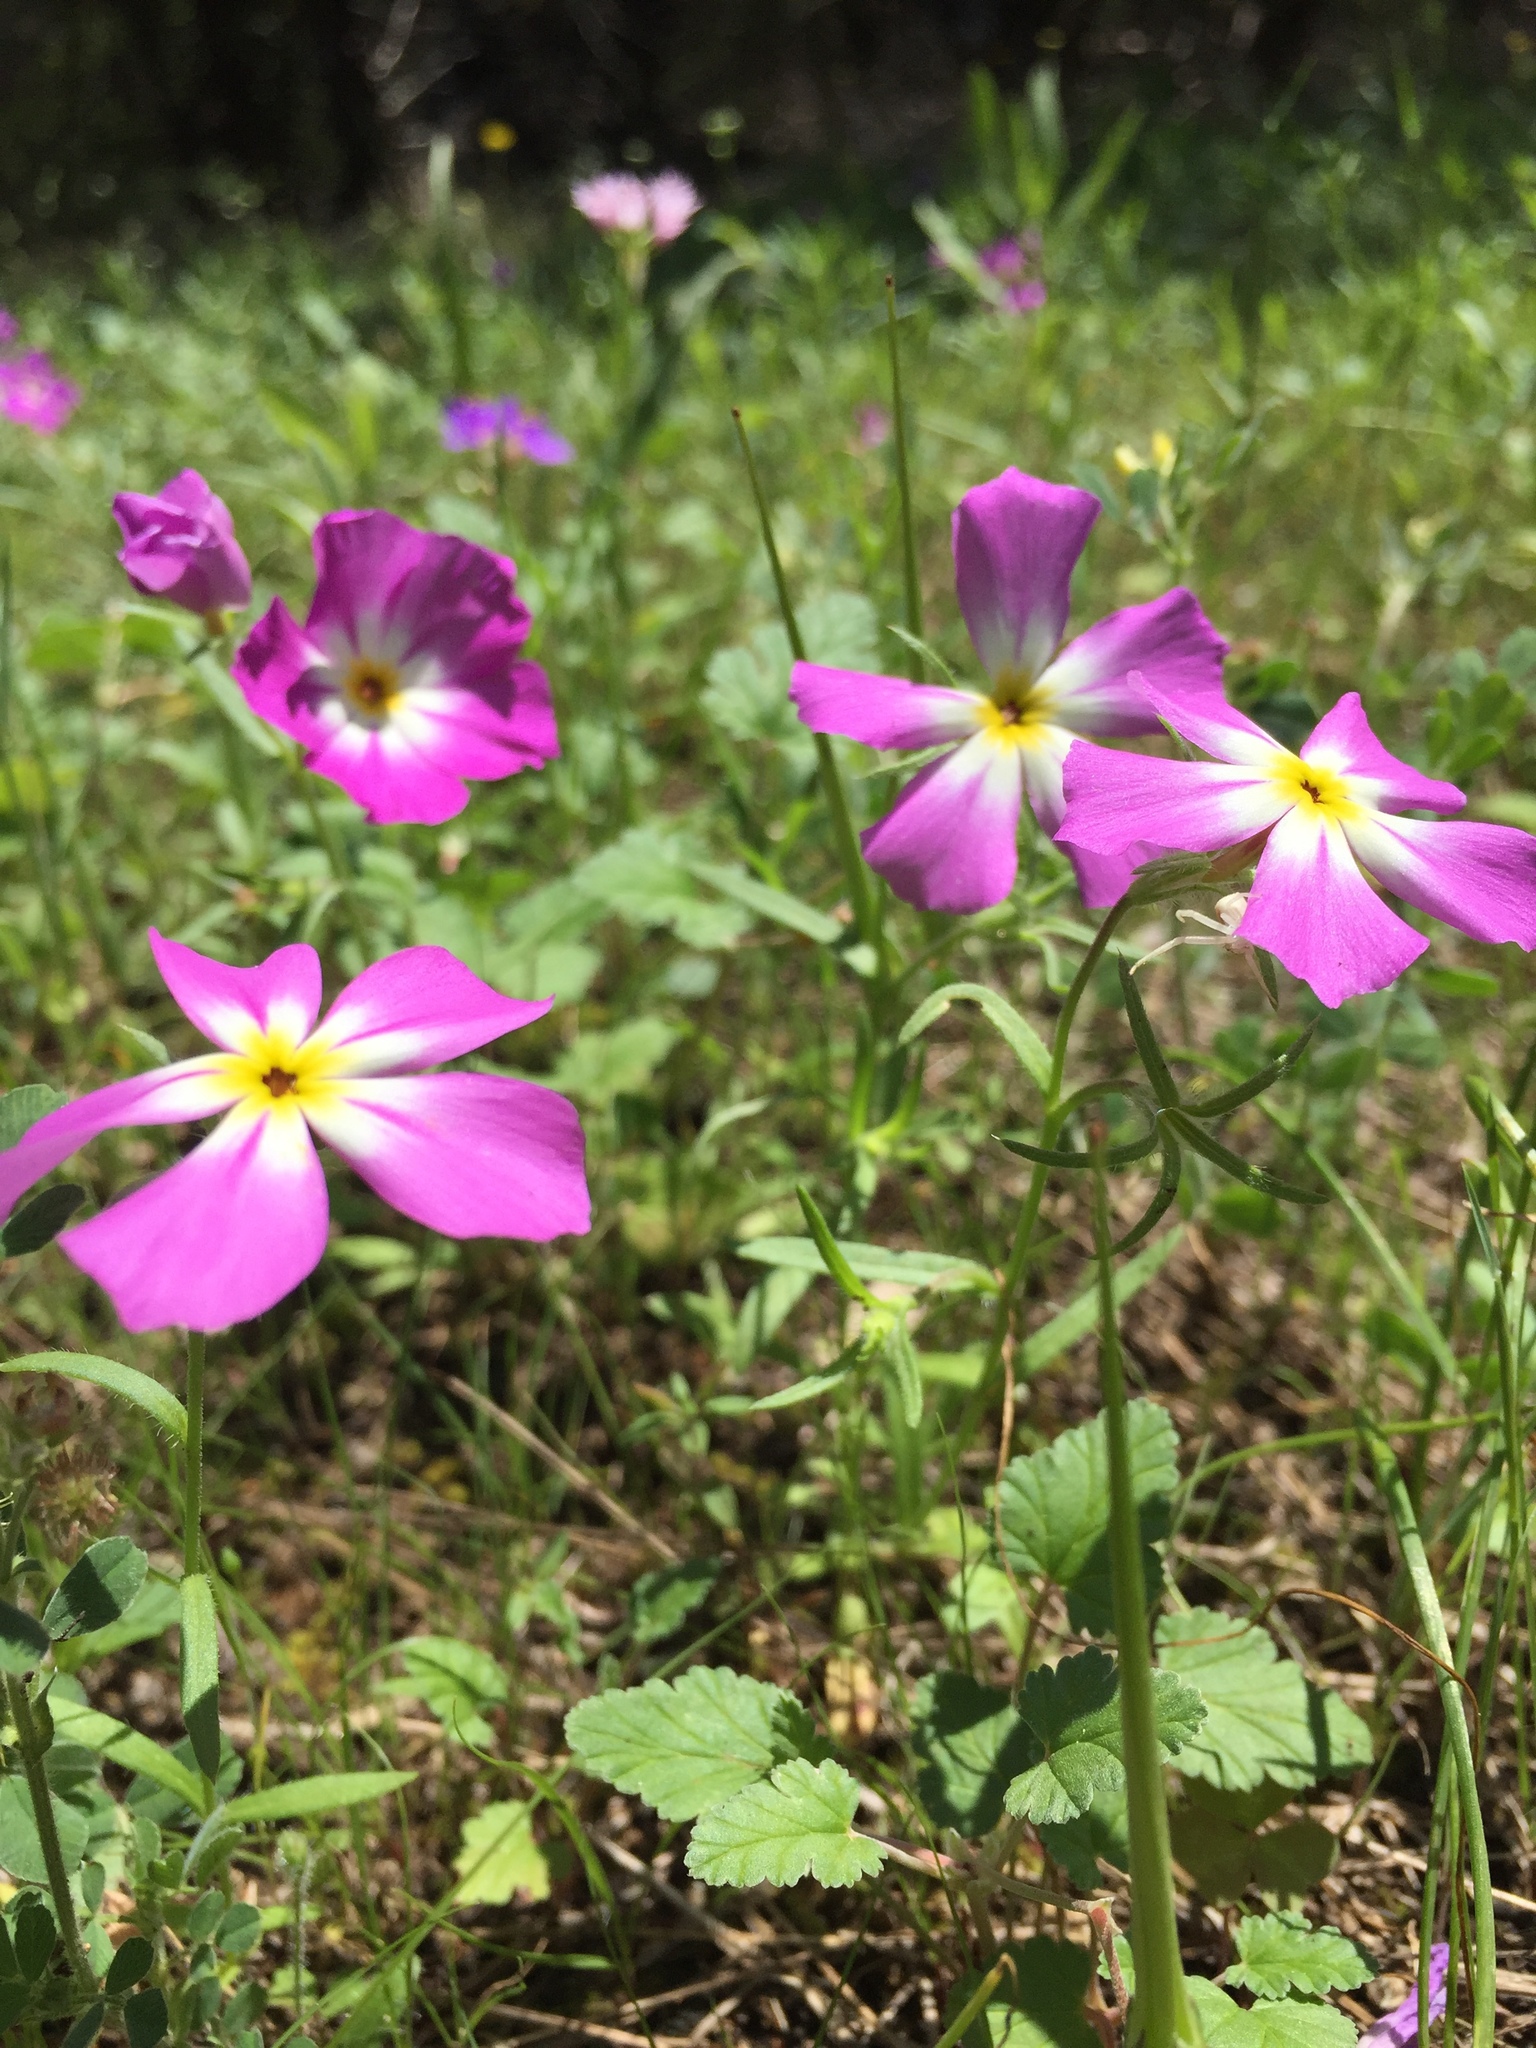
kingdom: Plantae
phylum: Tracheophyta
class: Magnoliopsida
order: Ericales
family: Polemoniaceae
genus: Phlox
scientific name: Phlox roemeriana
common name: Roemer's phlox
